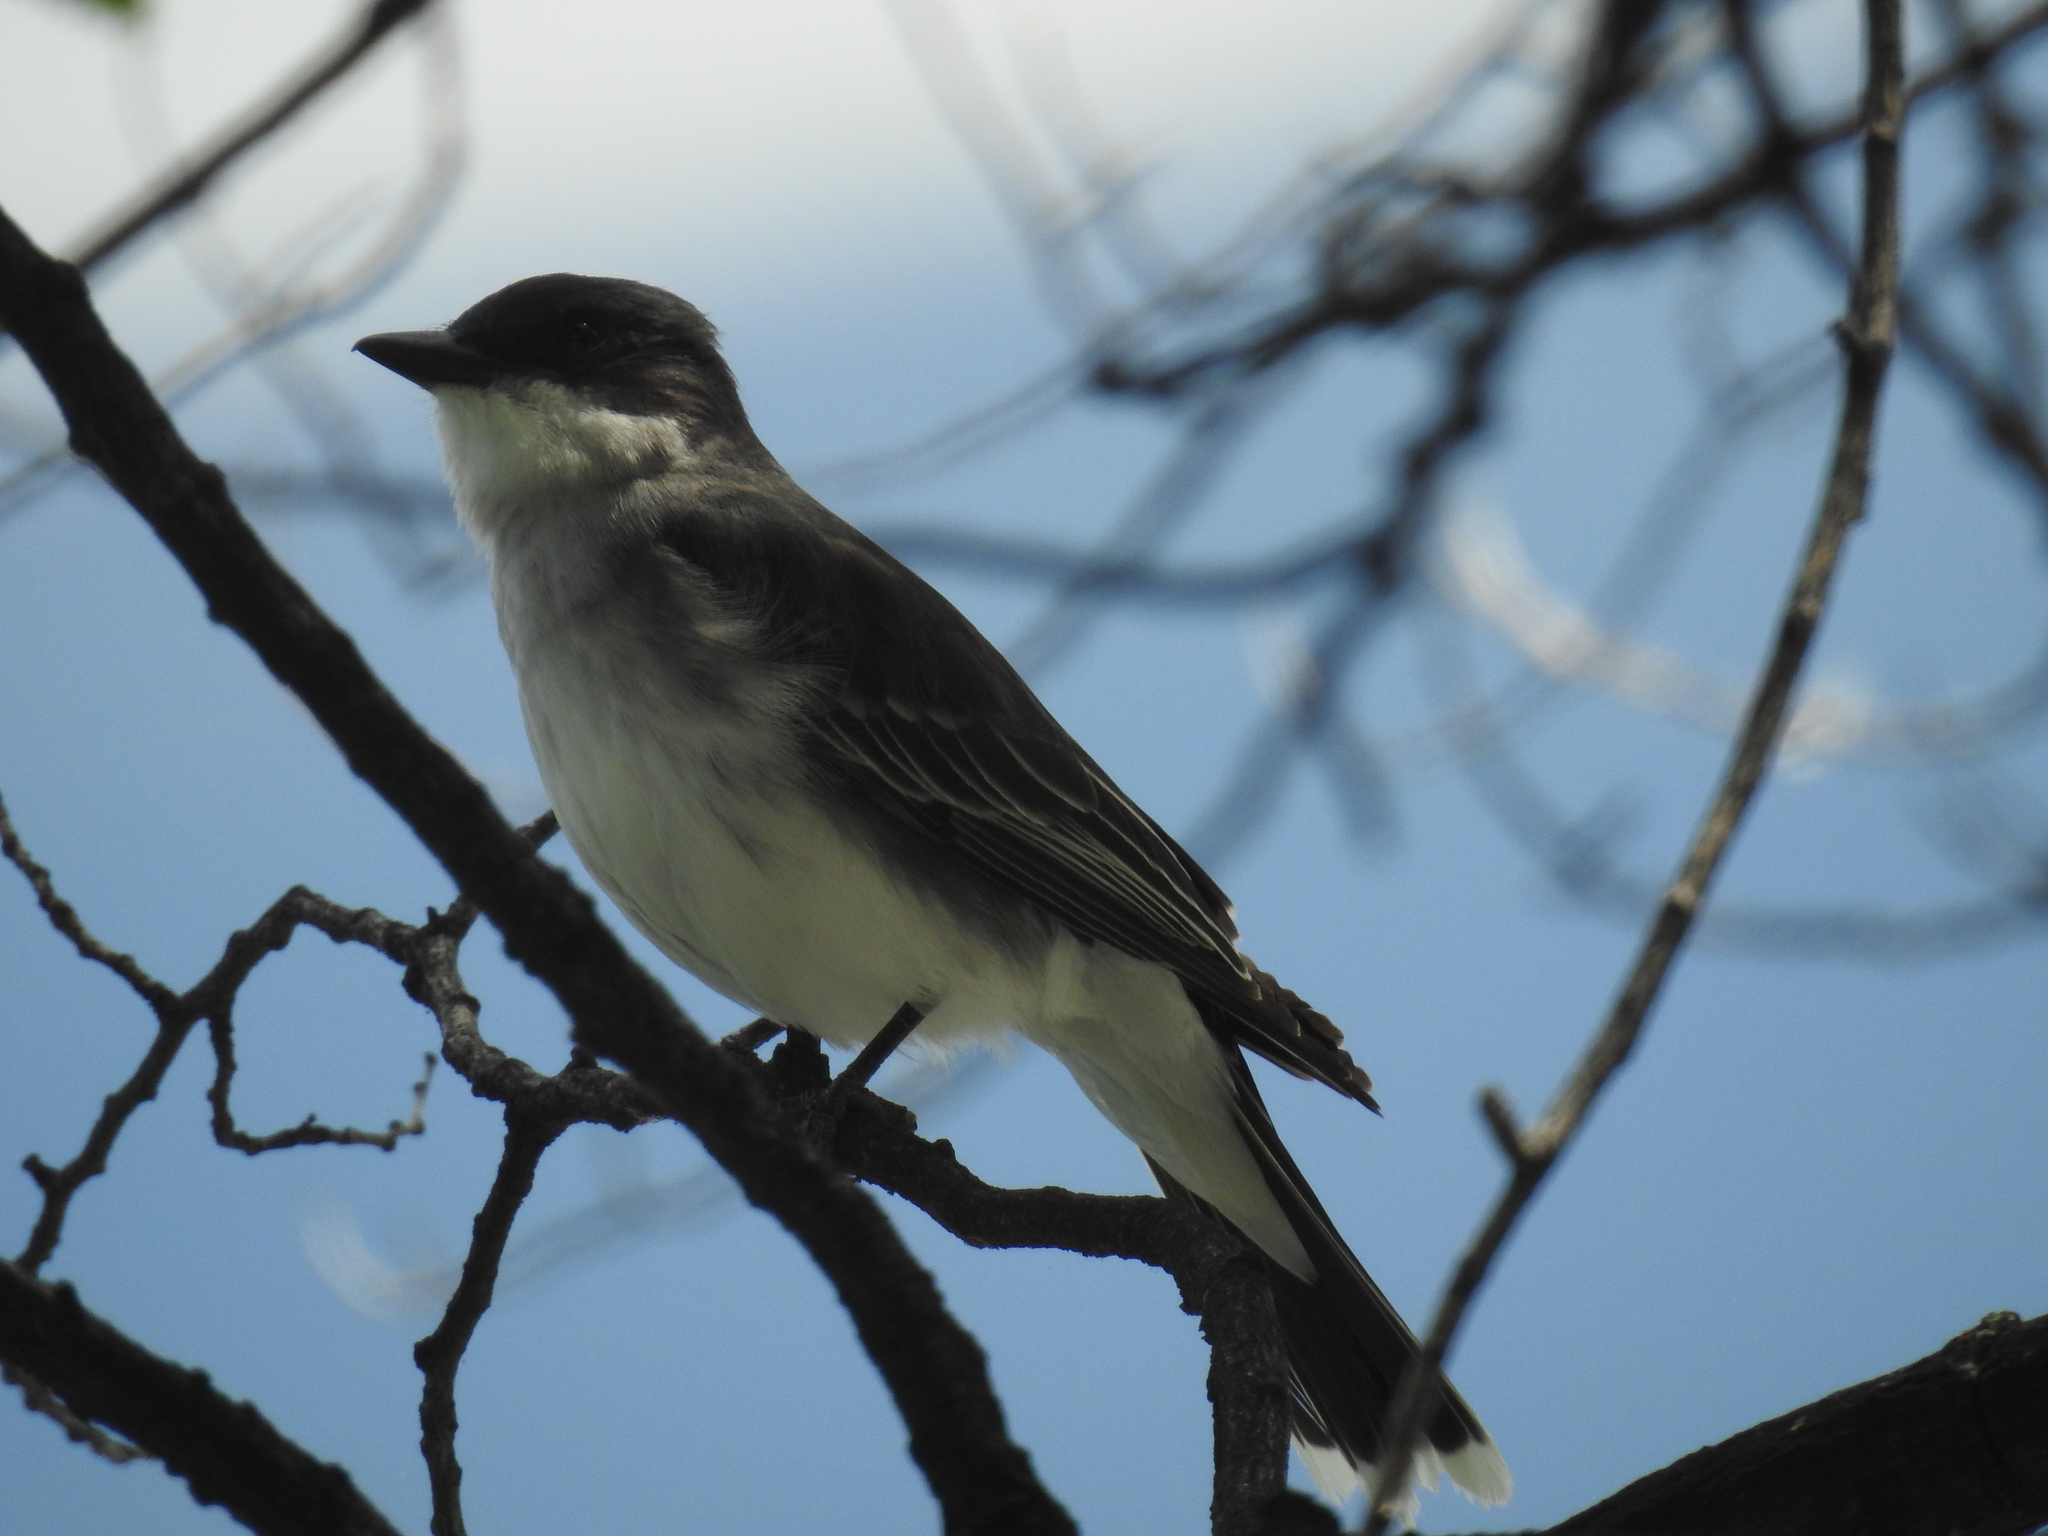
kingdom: Animalia
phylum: Chordata
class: Aves
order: Passeriformes
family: Tyrannidae
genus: Tyrannus
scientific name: Tyrannus tyrannus
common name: Eastern kingbird
